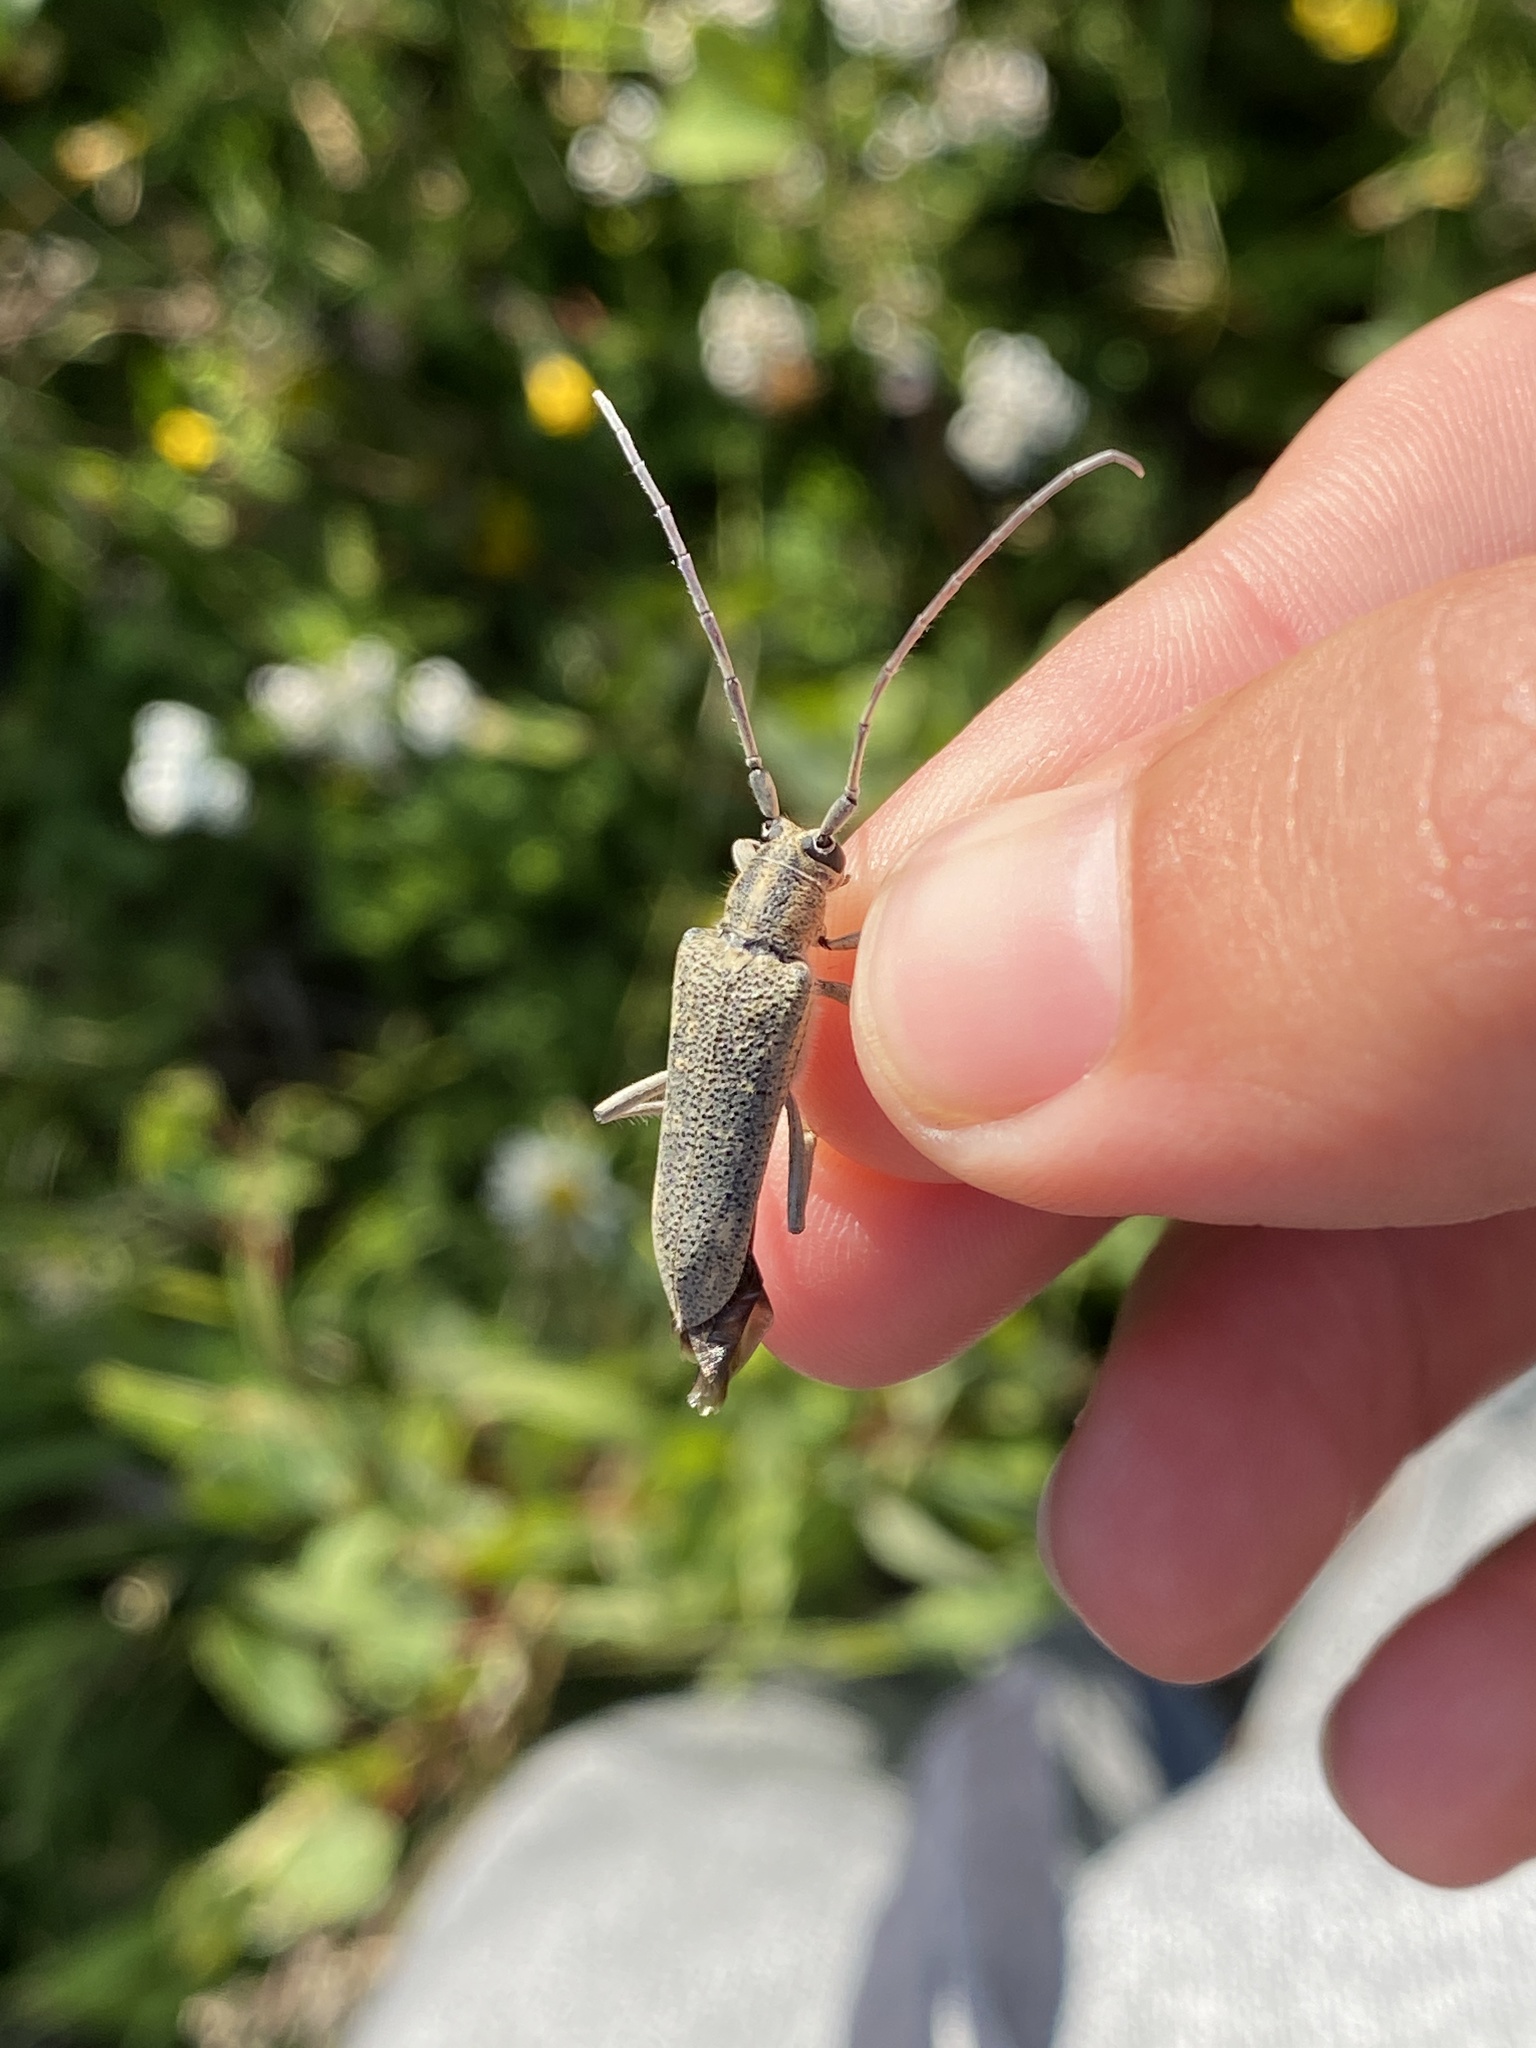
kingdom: Animalia
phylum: Arthropoda
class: Insecta
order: Coleoptera
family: Cerambycidae
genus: Saperda
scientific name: Saperda calcarata
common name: Poplar borer
